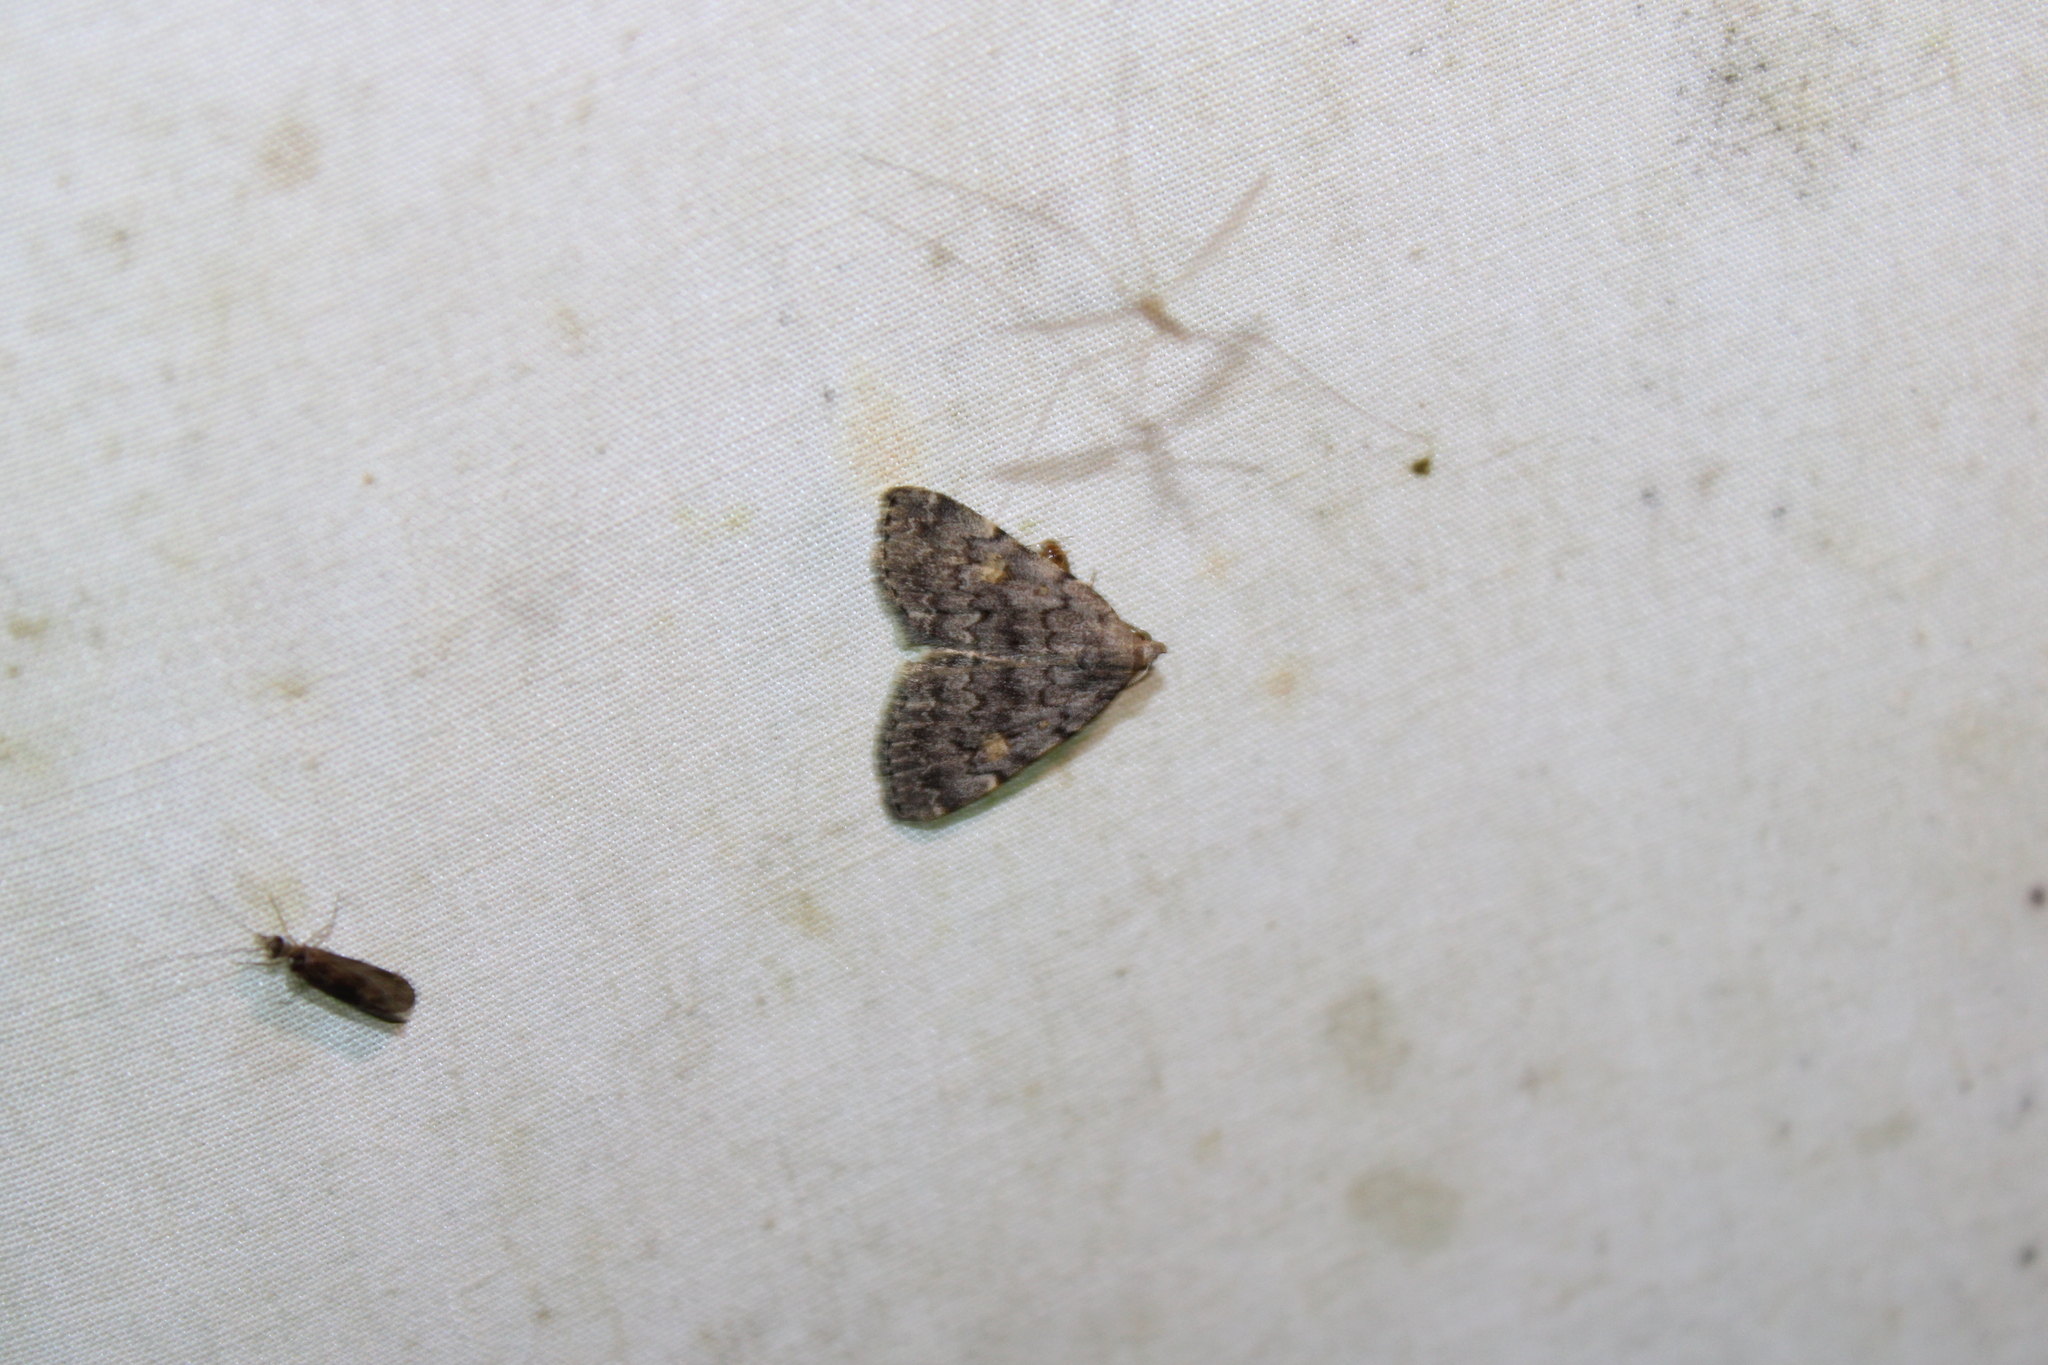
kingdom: Animalia
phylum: Arthropoda
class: Insecta
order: Lepidoptera
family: Erebidae
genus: Idia
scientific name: Idia aemula
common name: Common idia moth
